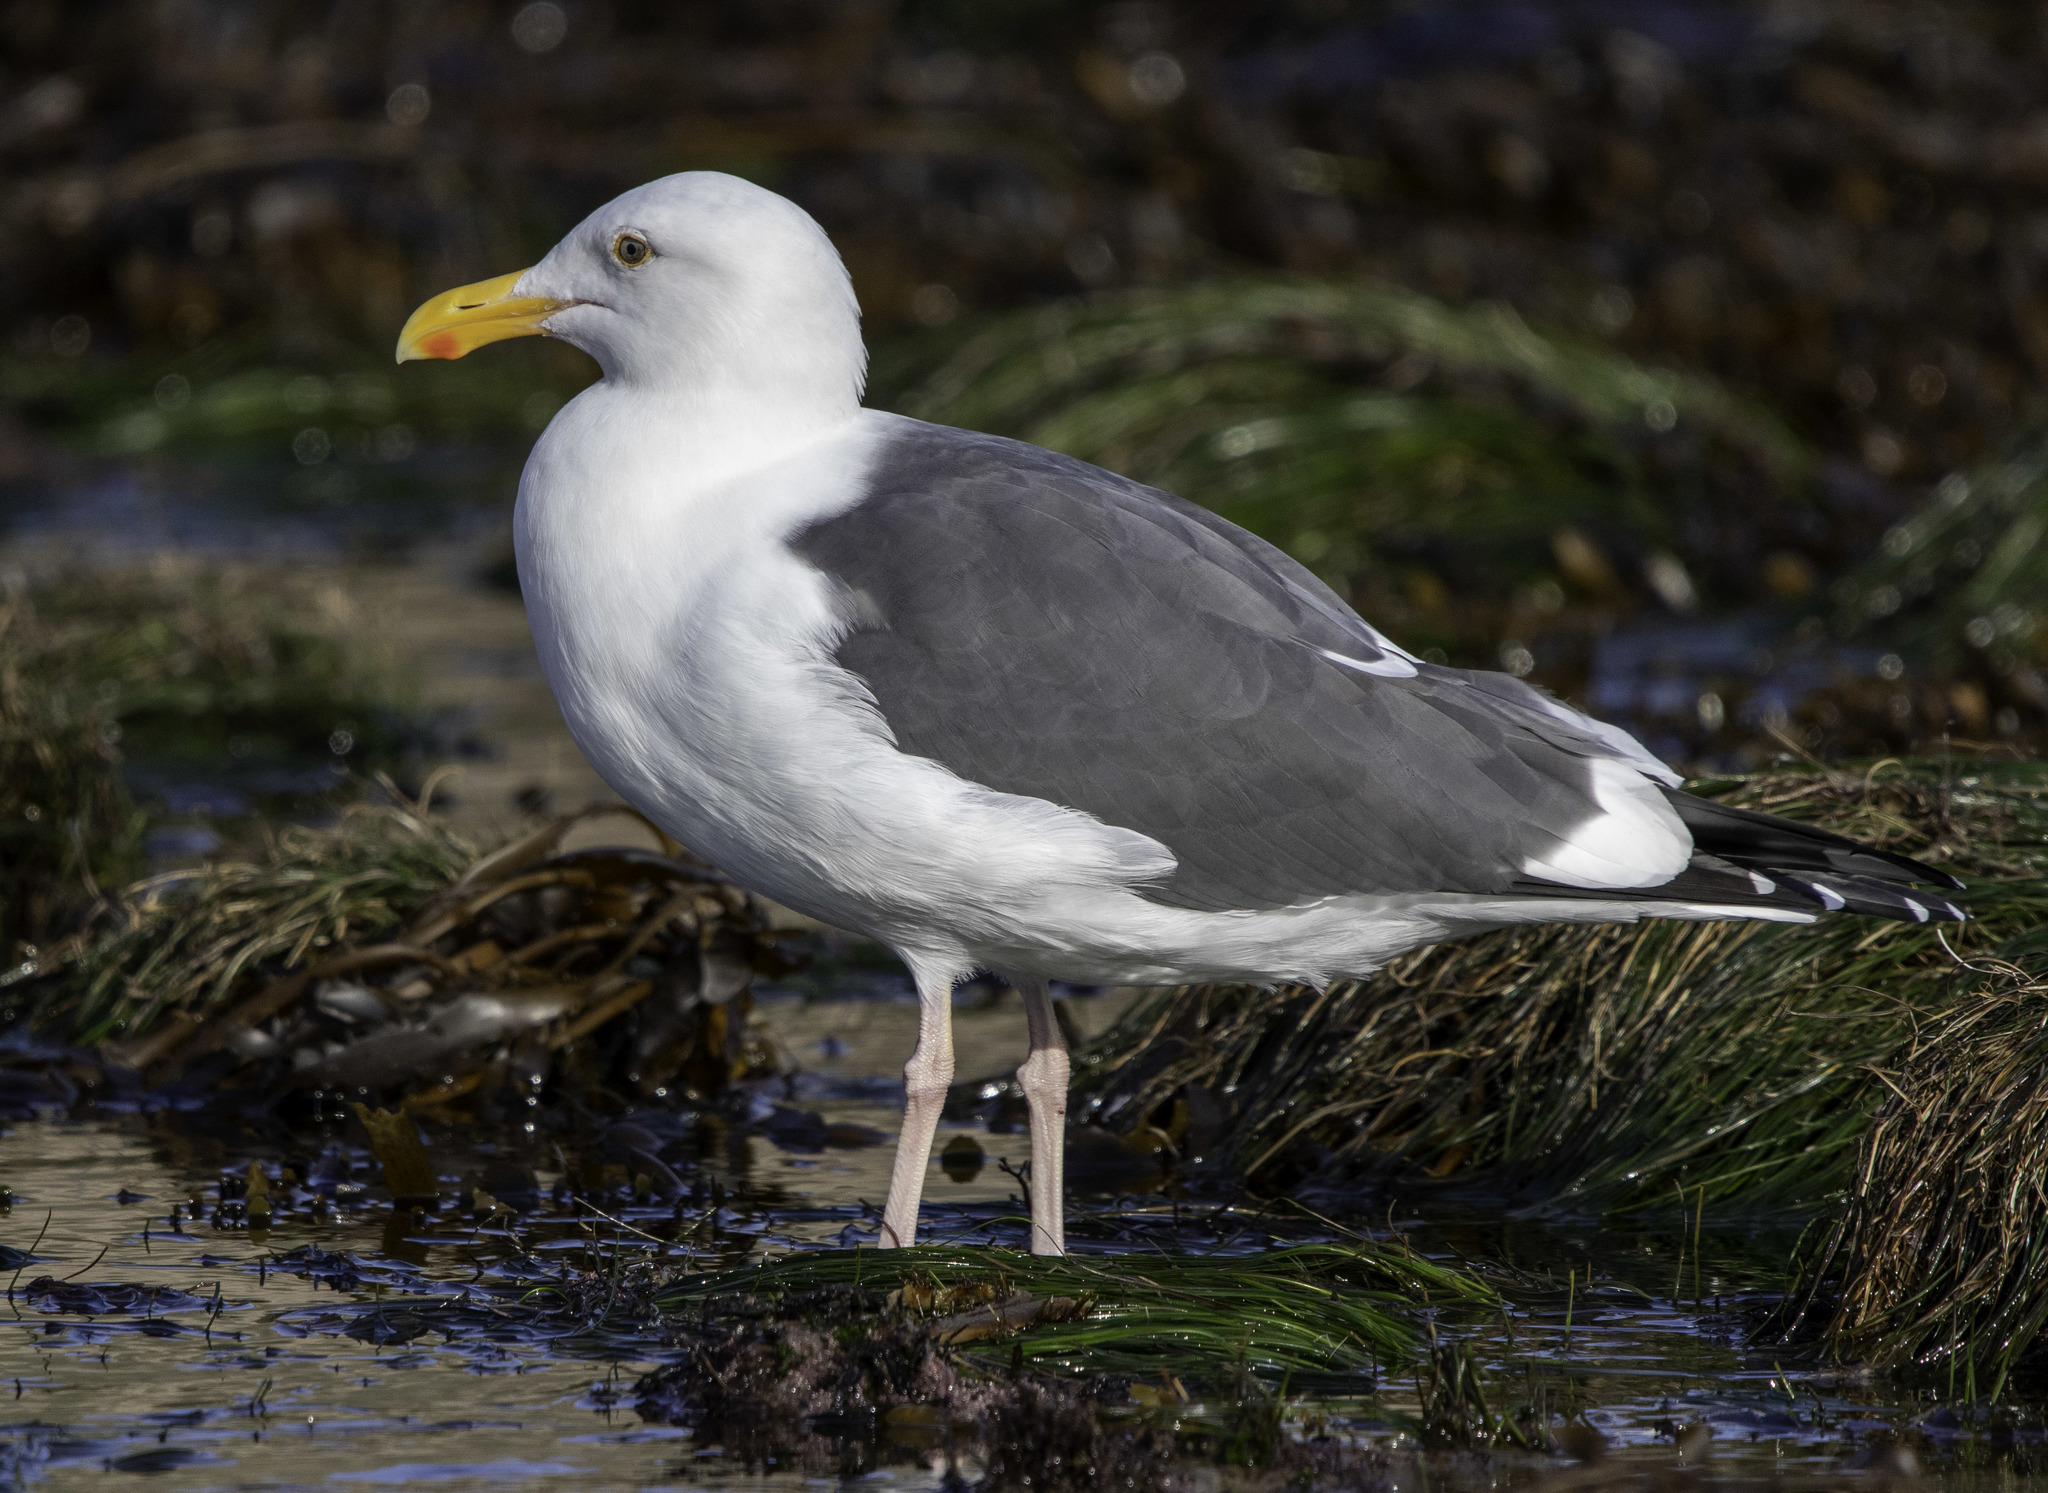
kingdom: Animalia
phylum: Chordata
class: Aves
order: Charadriiformes
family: Laridae
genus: Larus
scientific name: Larus occidentalis
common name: Western gull
